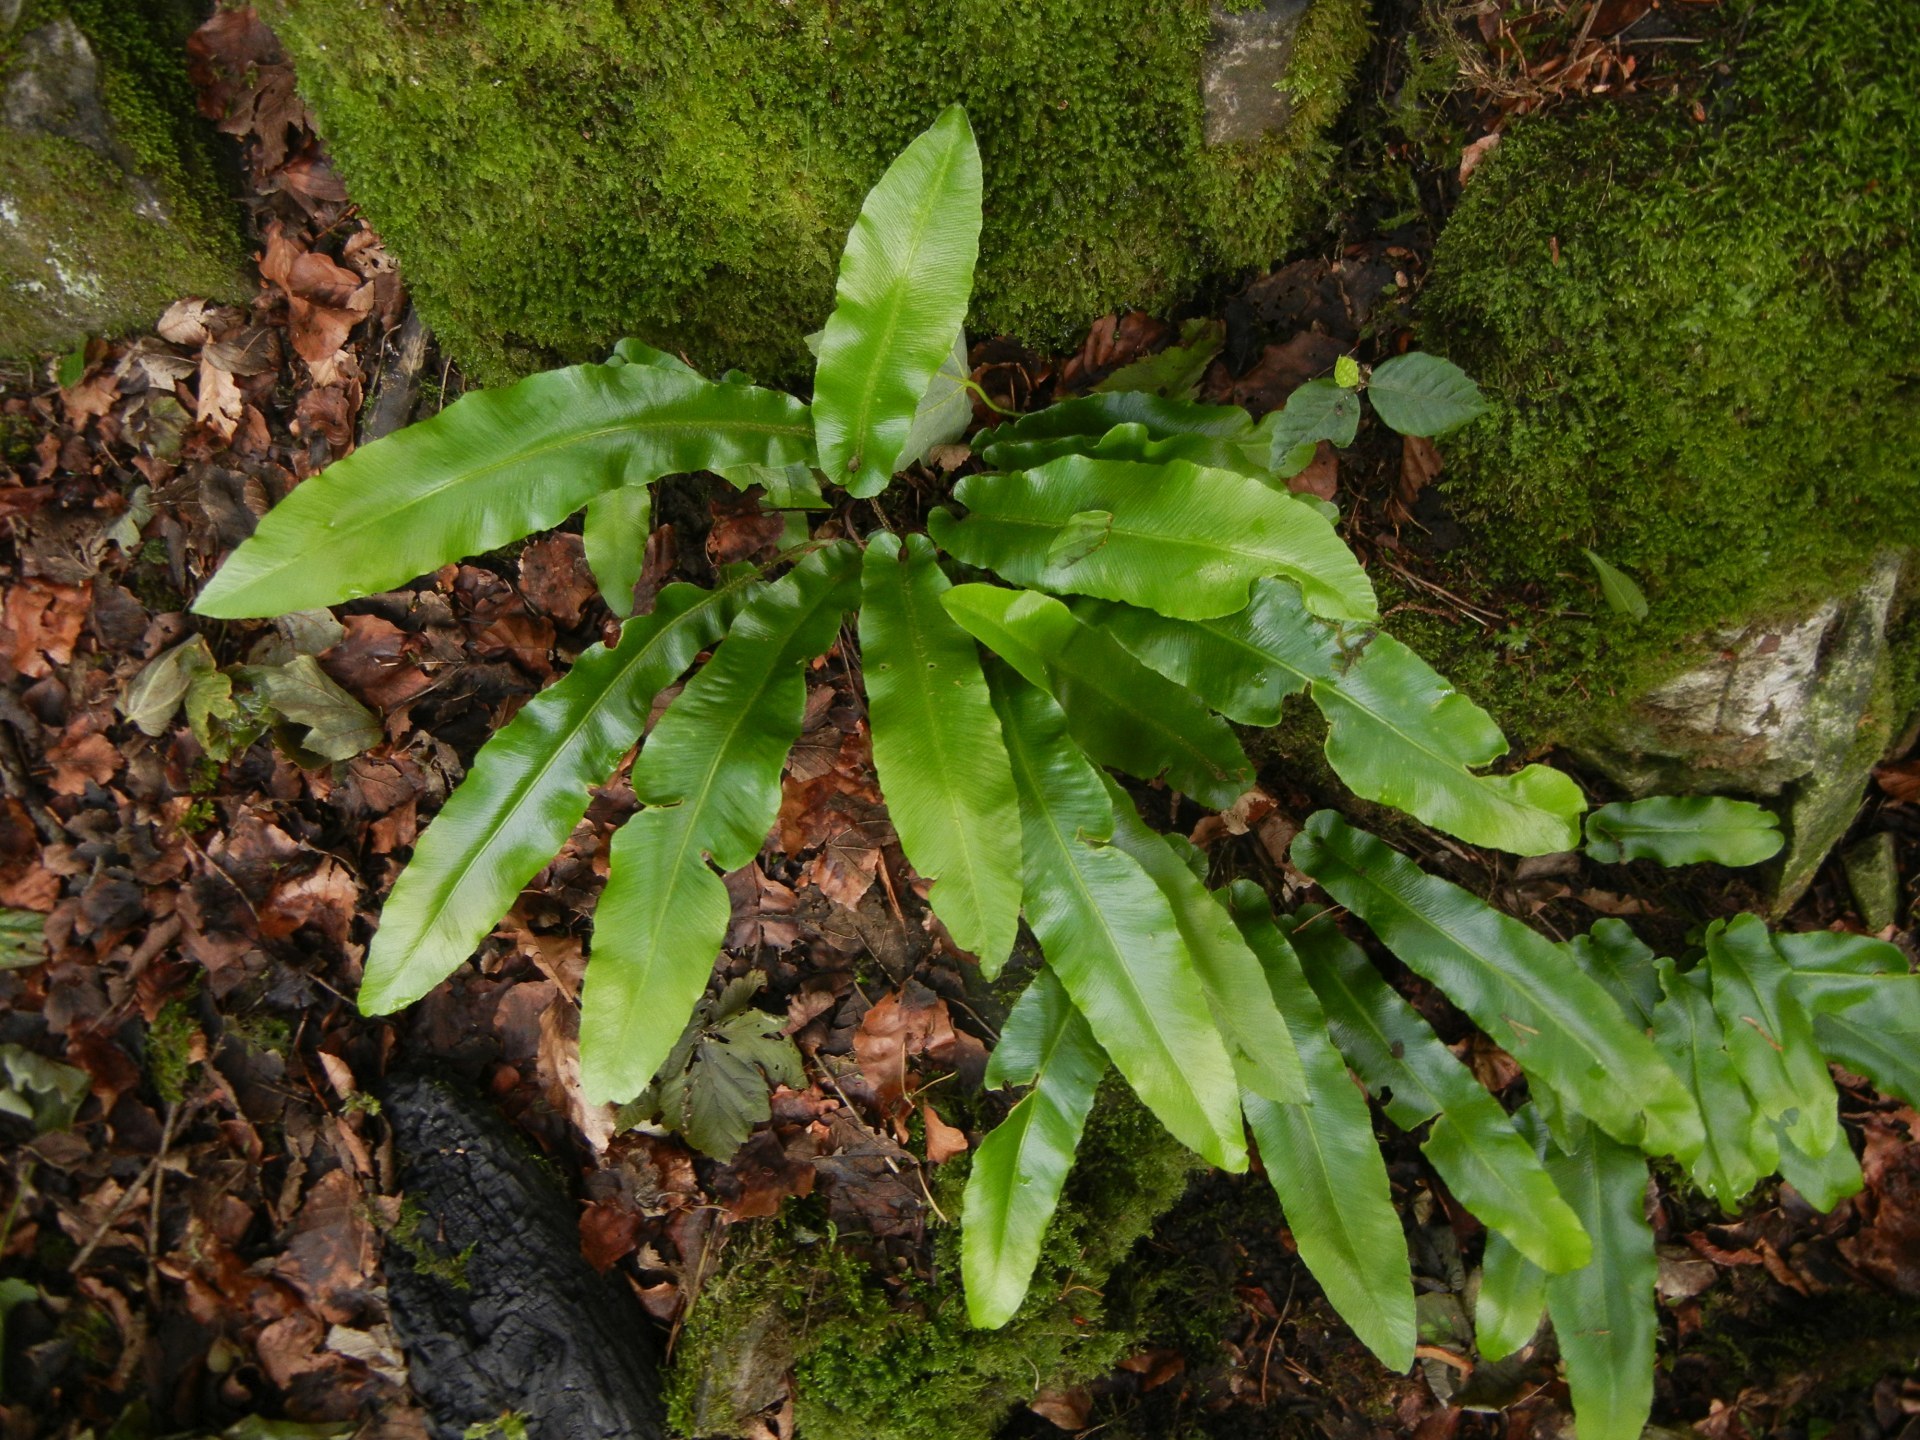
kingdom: Plantae
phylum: Tracheophyta
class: Polypodiopsida
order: Polypodiales
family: Aspleniaceae
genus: Asplenium
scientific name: Asplenium scolopendrium
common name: Hart's-tongue fern
